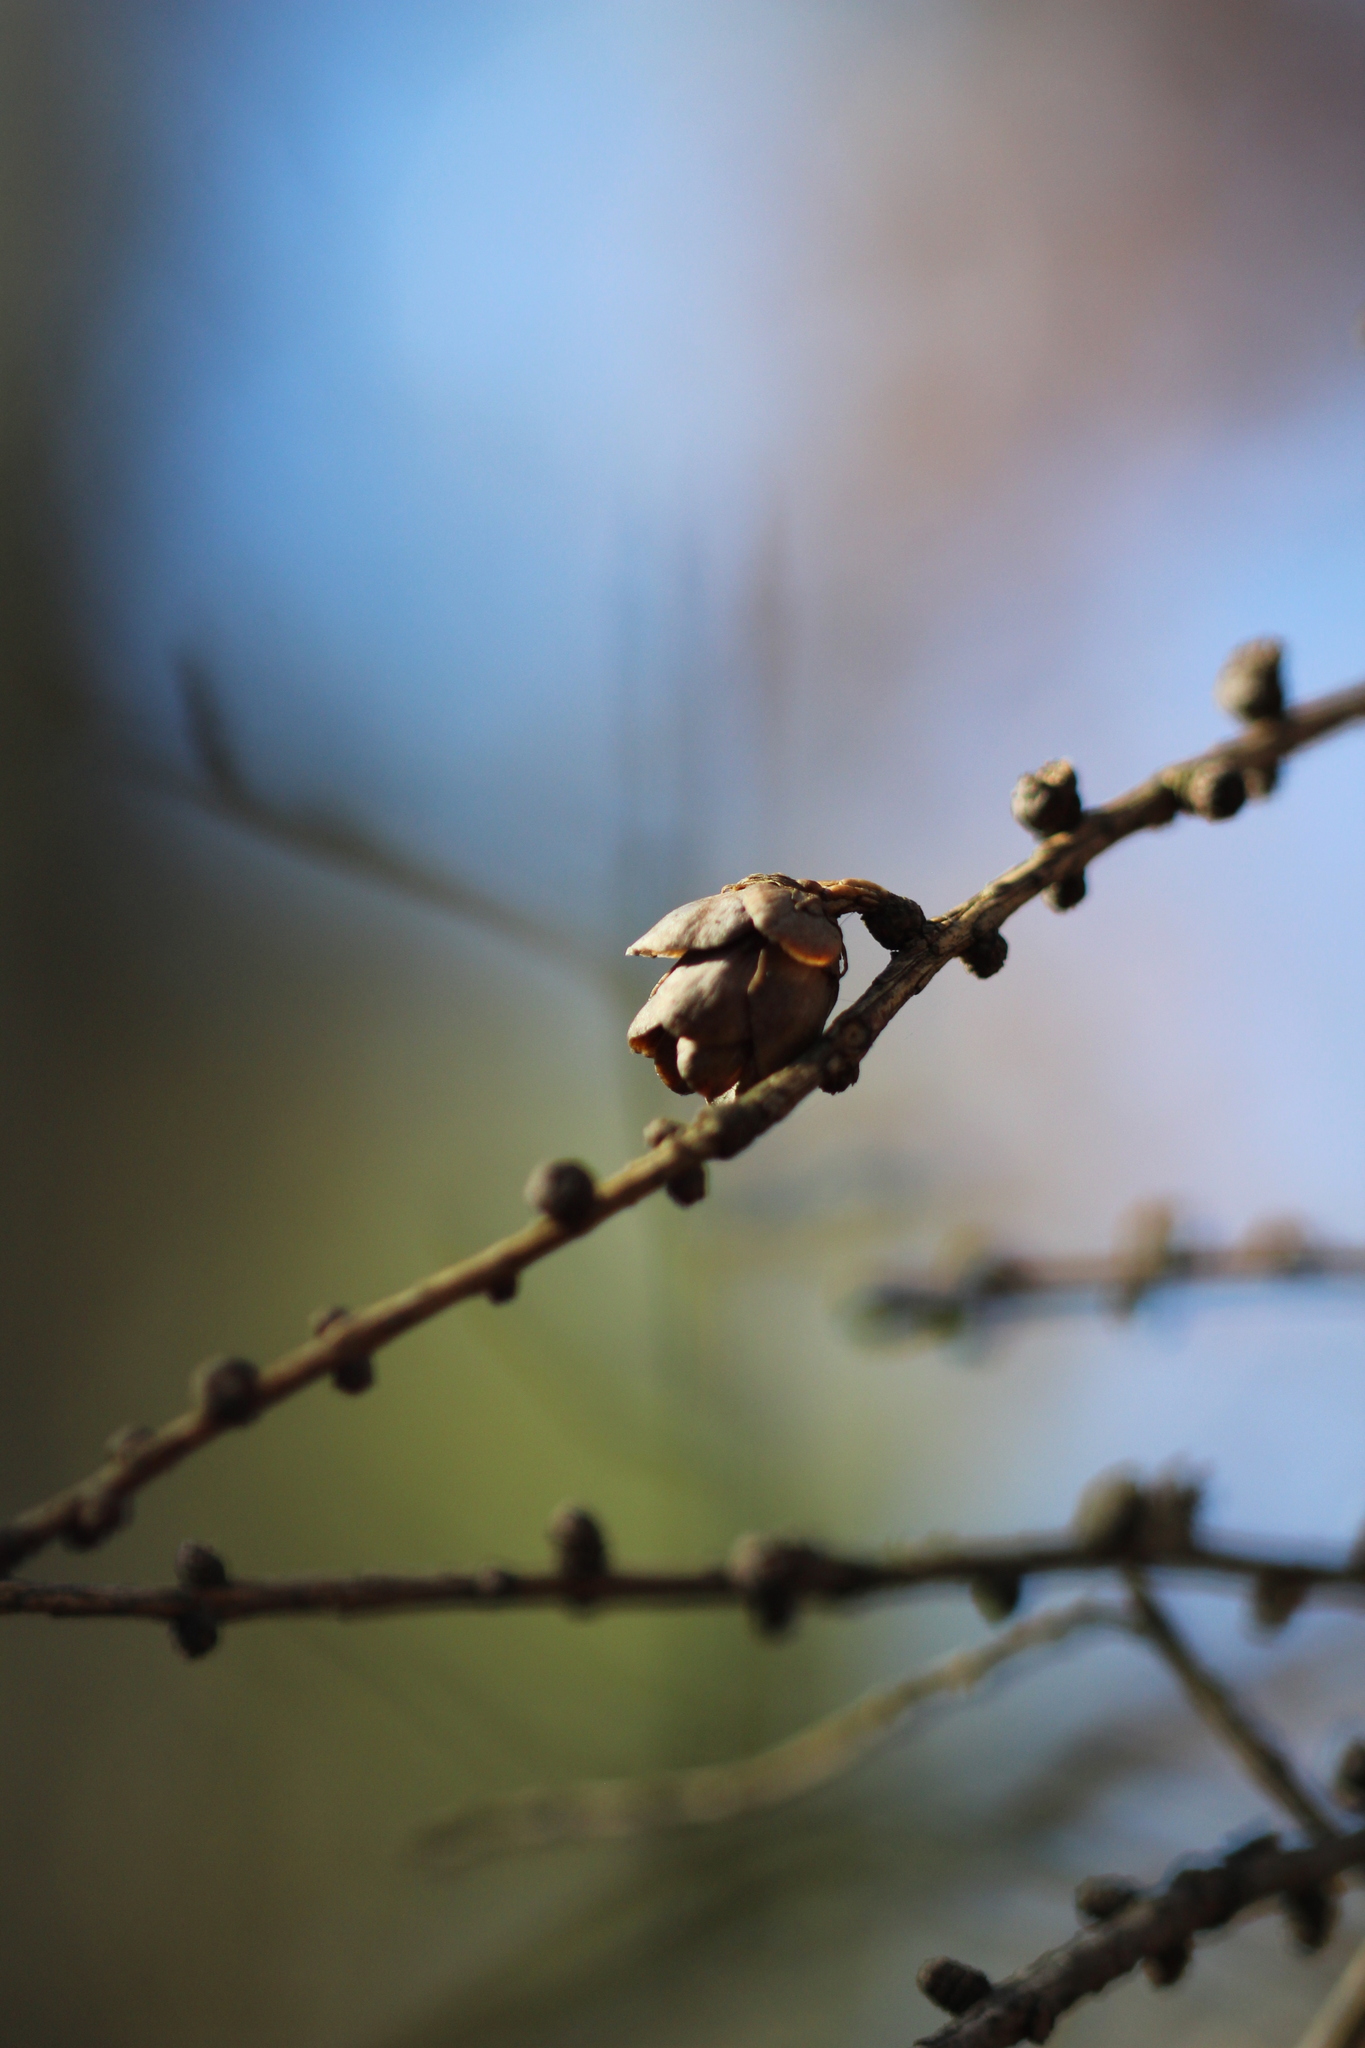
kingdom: Plantae
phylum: Tracheophyta
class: Pinopsida
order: Pinales
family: Pinaceae
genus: Larix
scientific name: Larix laricina
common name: American larch
